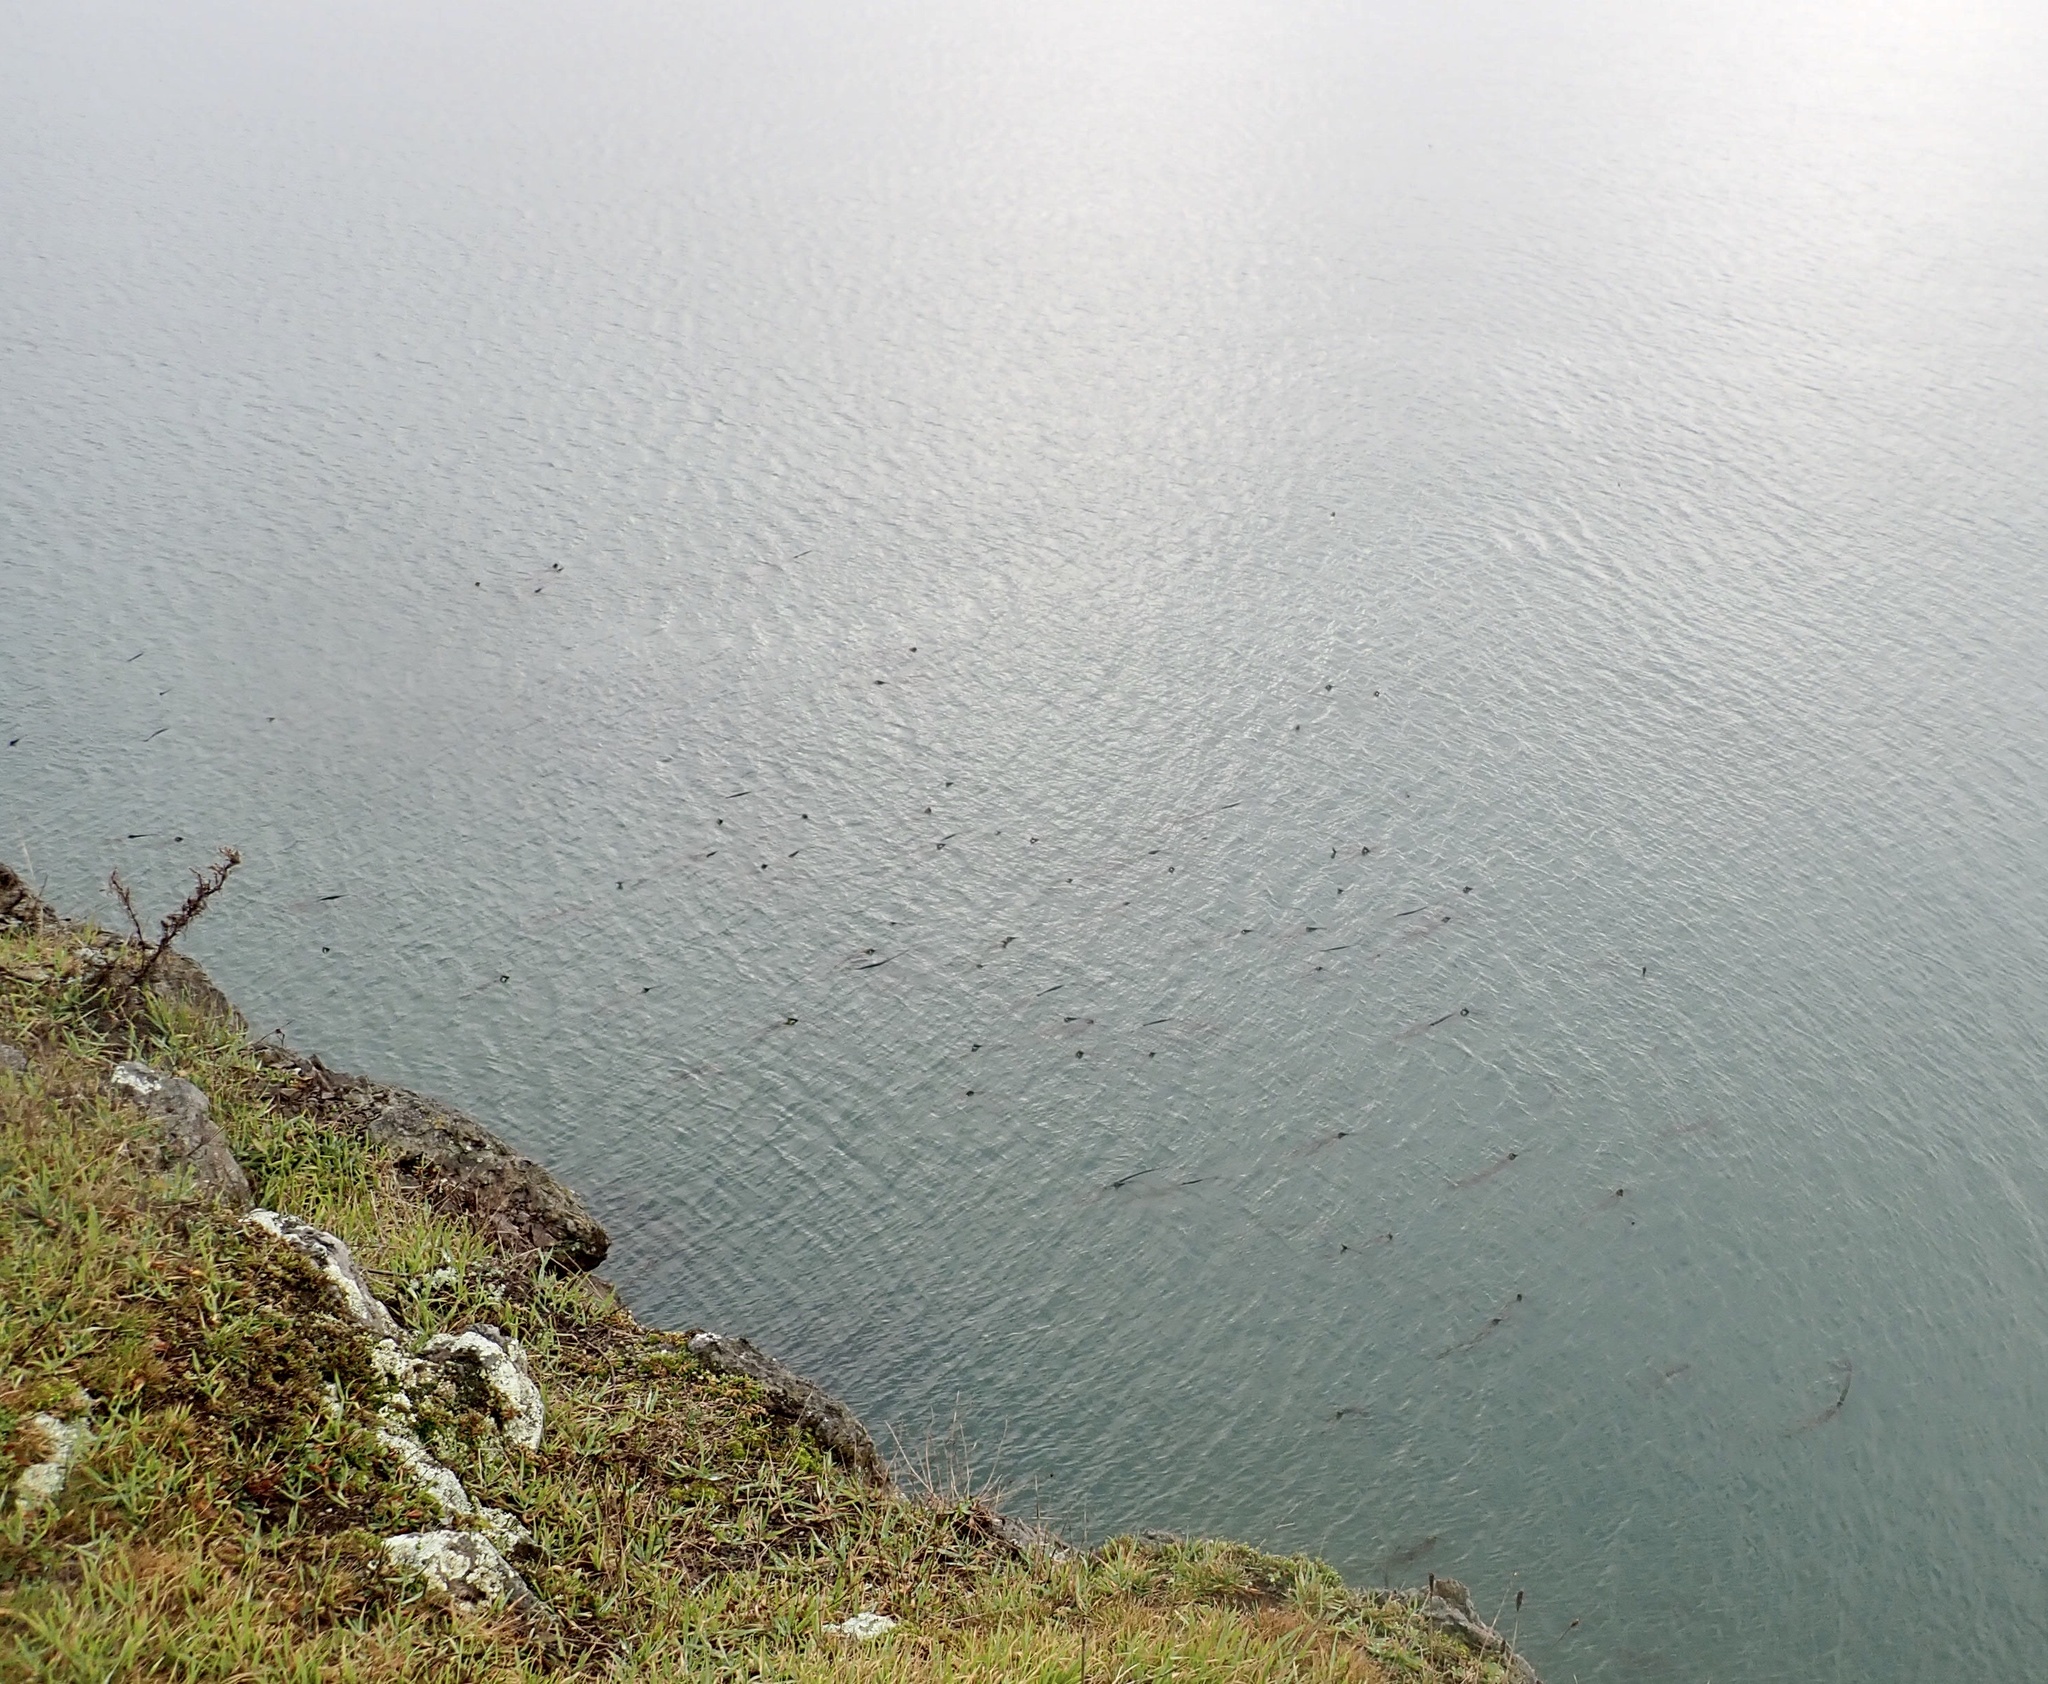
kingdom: Chromista
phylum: Ochrophyta
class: Phaeophyceae
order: Laminariales
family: Laminariaceae
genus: Nereocystis
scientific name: Nereocystis luetkeana
